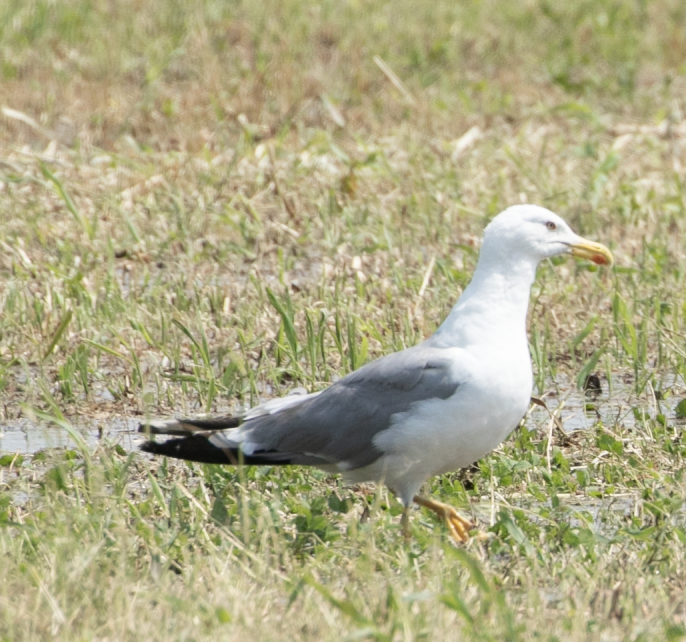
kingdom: Animalia
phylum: Chordata
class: Aves
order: Charadriiformes
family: Laridae
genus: Larus
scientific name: Larus michahellis
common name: Yellow-legged gull
